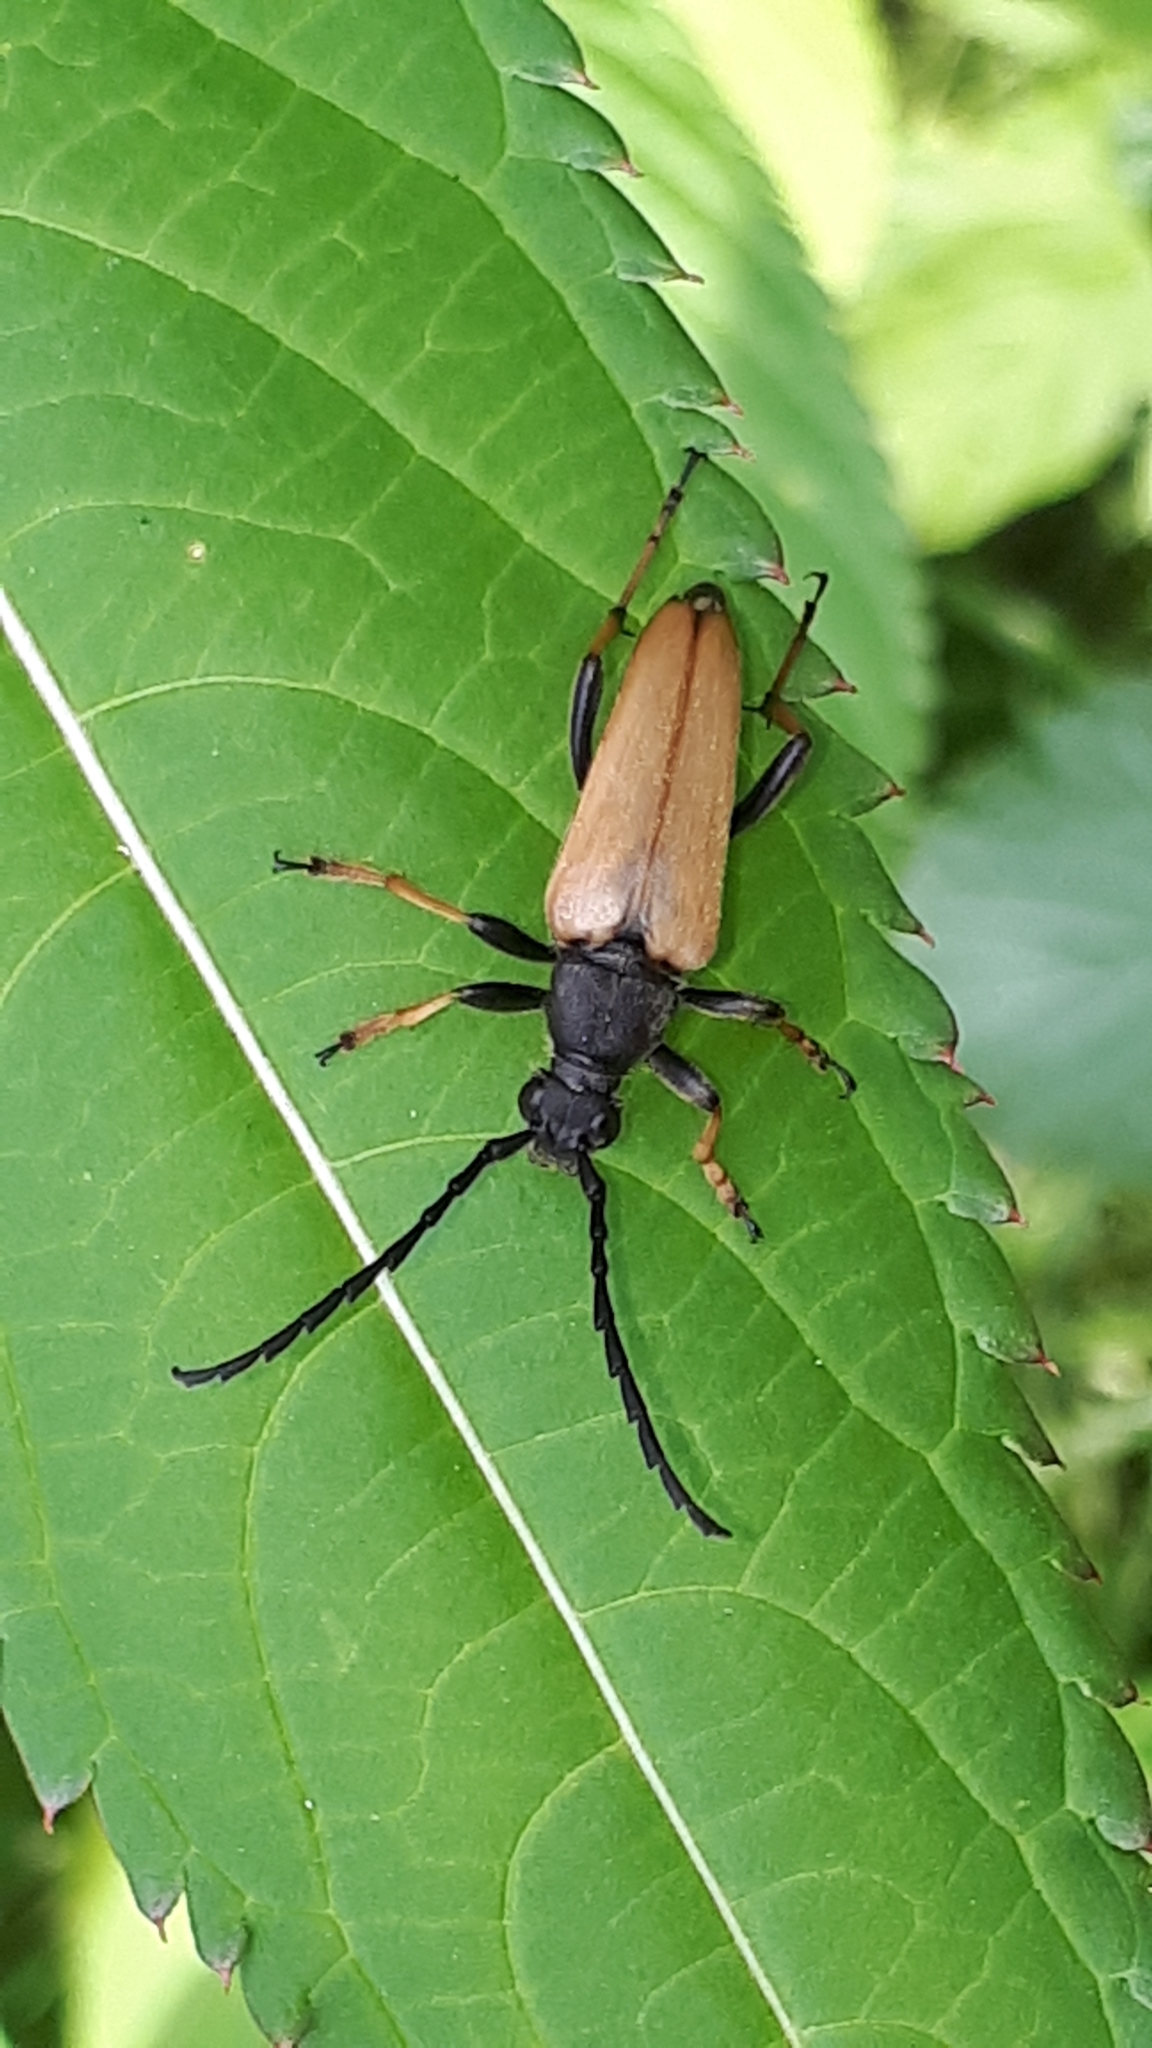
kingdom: Animalia
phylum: Arthropoda
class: Insecta
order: Coleoptera
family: Cerambycidae
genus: Stictoleptura
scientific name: Stictoleptura rubra
